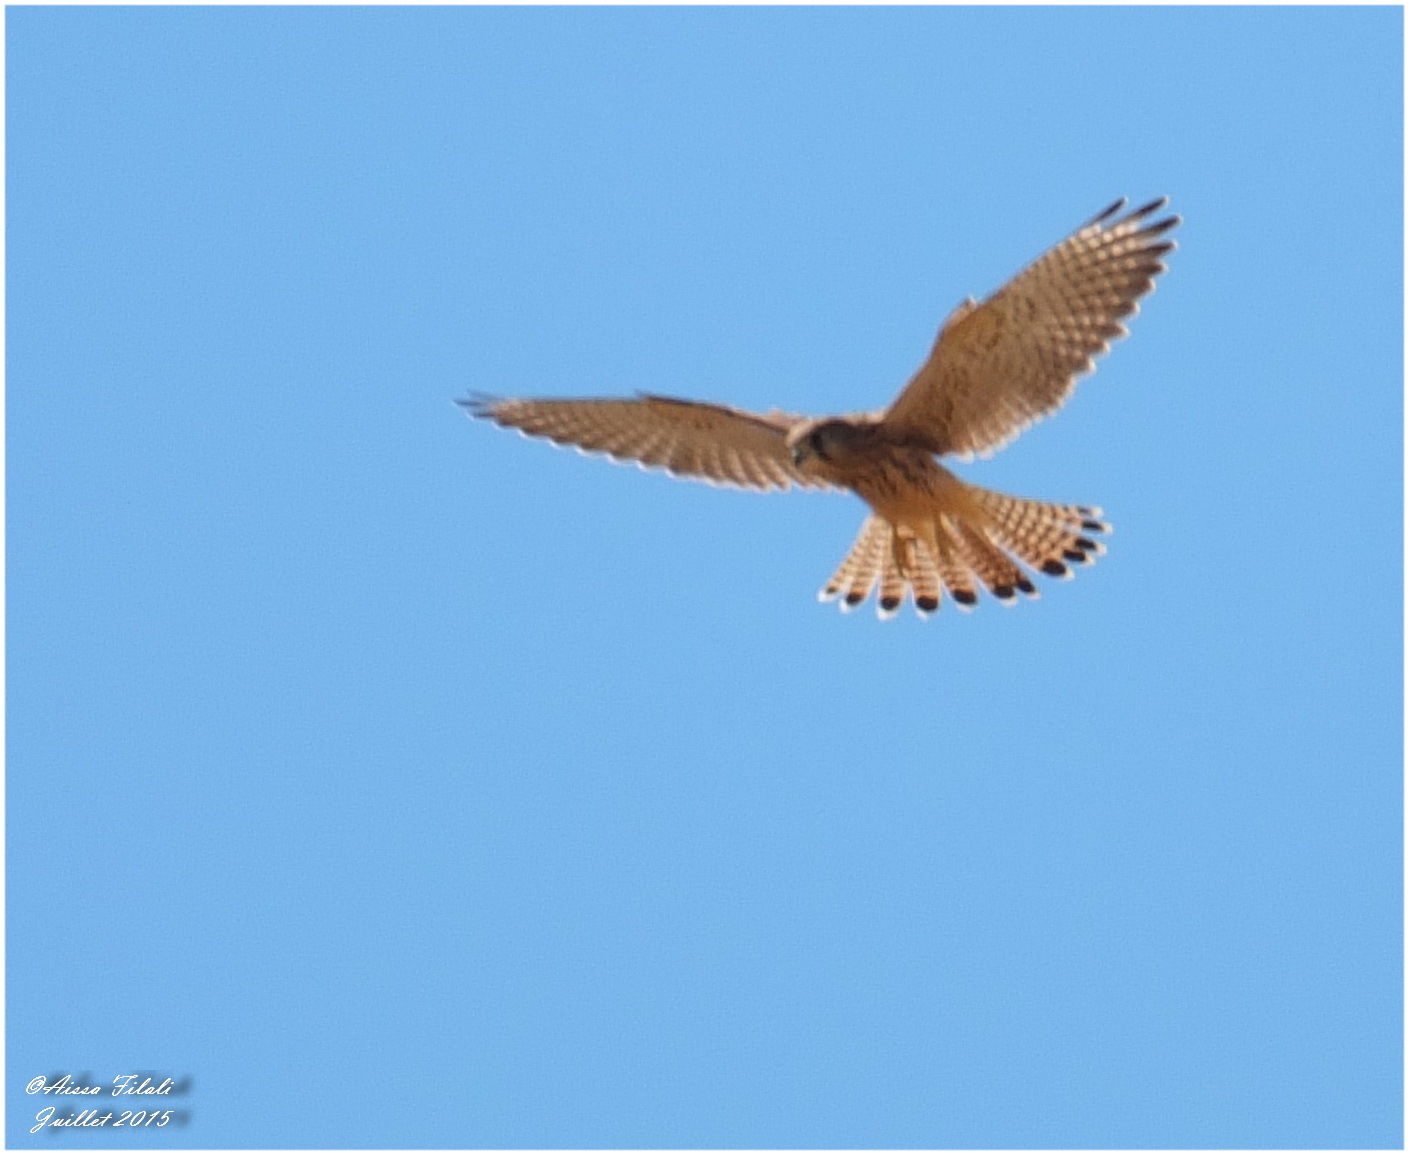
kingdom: Animalia
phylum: Chordata
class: Aves
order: Falconiformes
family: Falconidae
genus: Falco
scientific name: Falco tinnunculus
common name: Common kestrel
